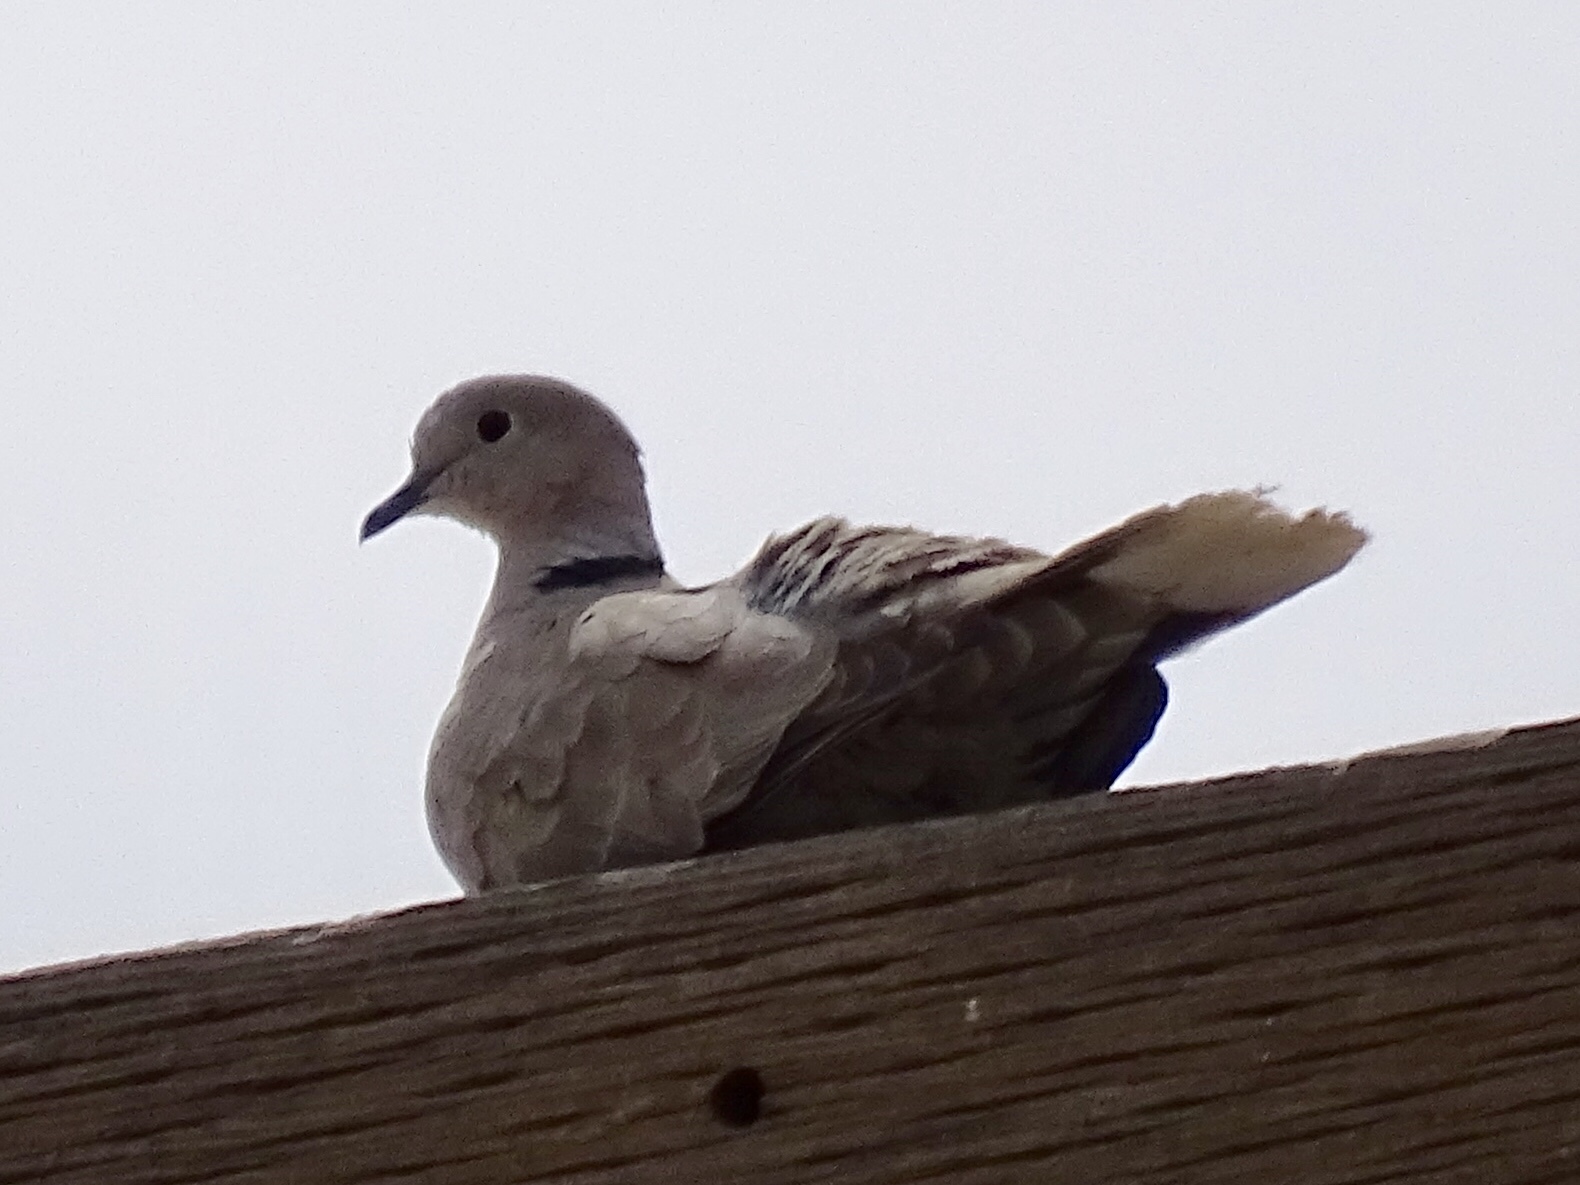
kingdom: Animalia
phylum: Chordata
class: Aves
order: Columbiformes
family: Columbidae
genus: Streptopelia
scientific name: Streptopelia decaocto
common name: Eurasian collared dove
